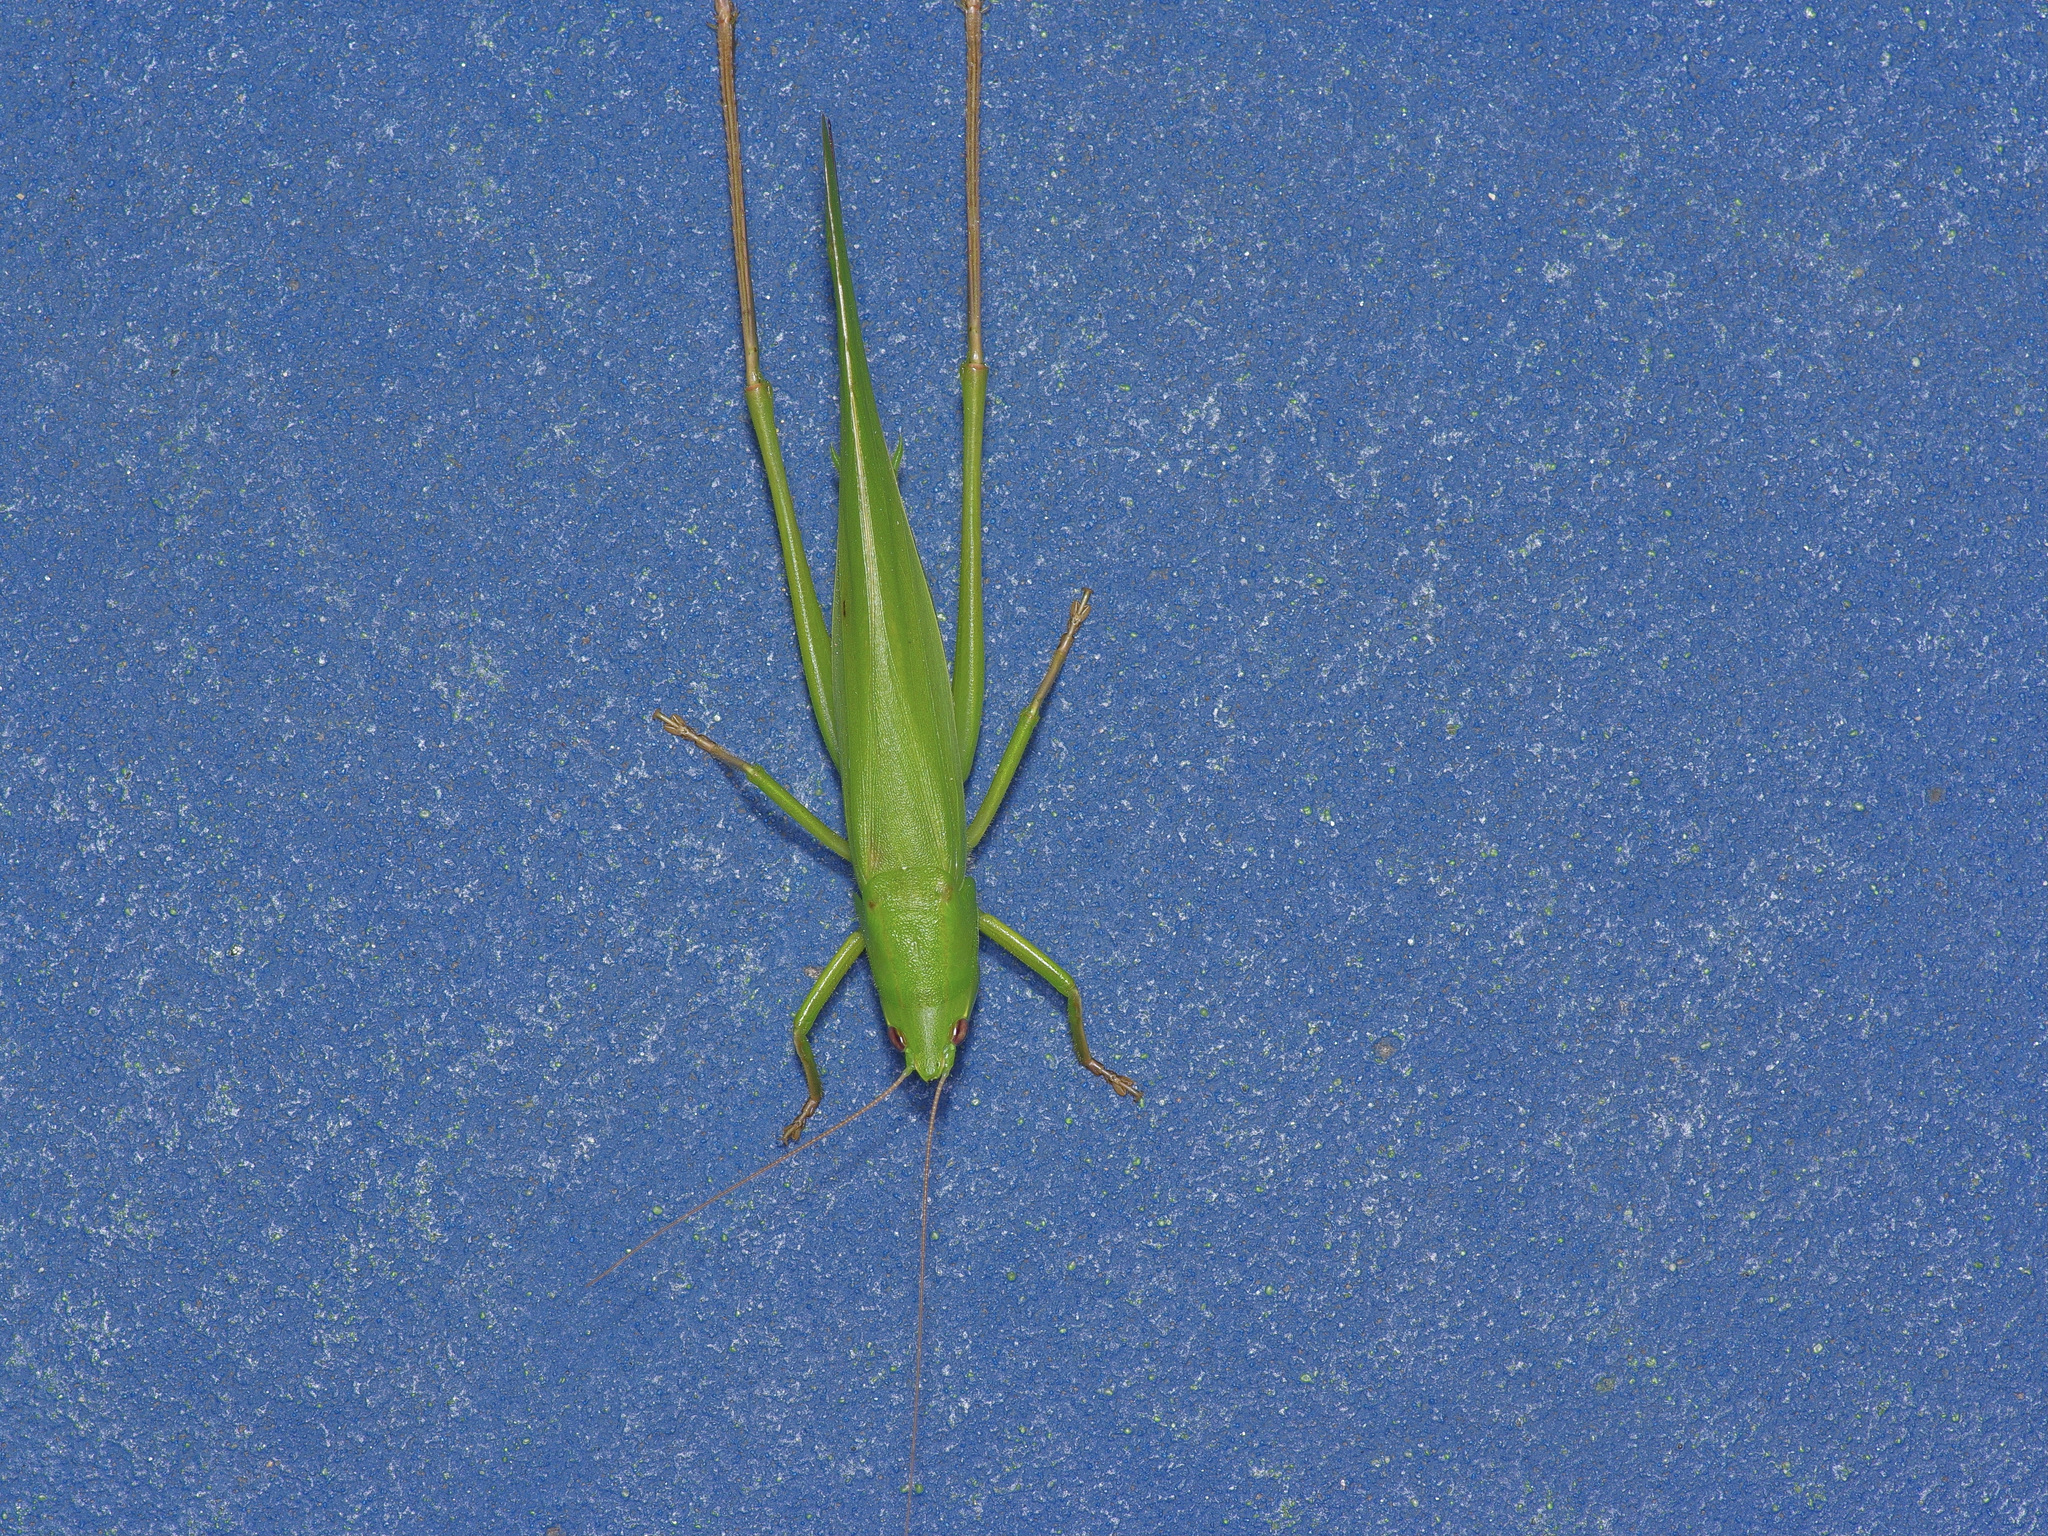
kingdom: Animalia
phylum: Arthropoda
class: Insecta
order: Orthoptera
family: Tettigoniidae
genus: Neoconocephalus
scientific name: Neoconocephalus triops
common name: Broad-tipped conehead
